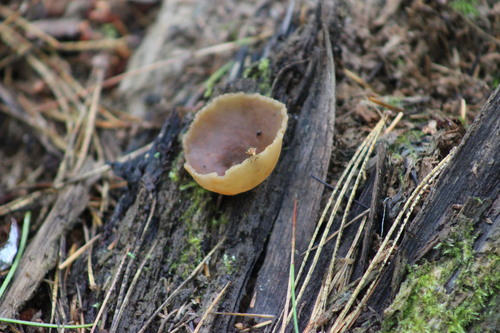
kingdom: Fungi
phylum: Ascomycota
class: Pezizomycetes
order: Pezizales
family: Pezizaceae
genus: Peziza
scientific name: Peziza varia
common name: Layered cup
